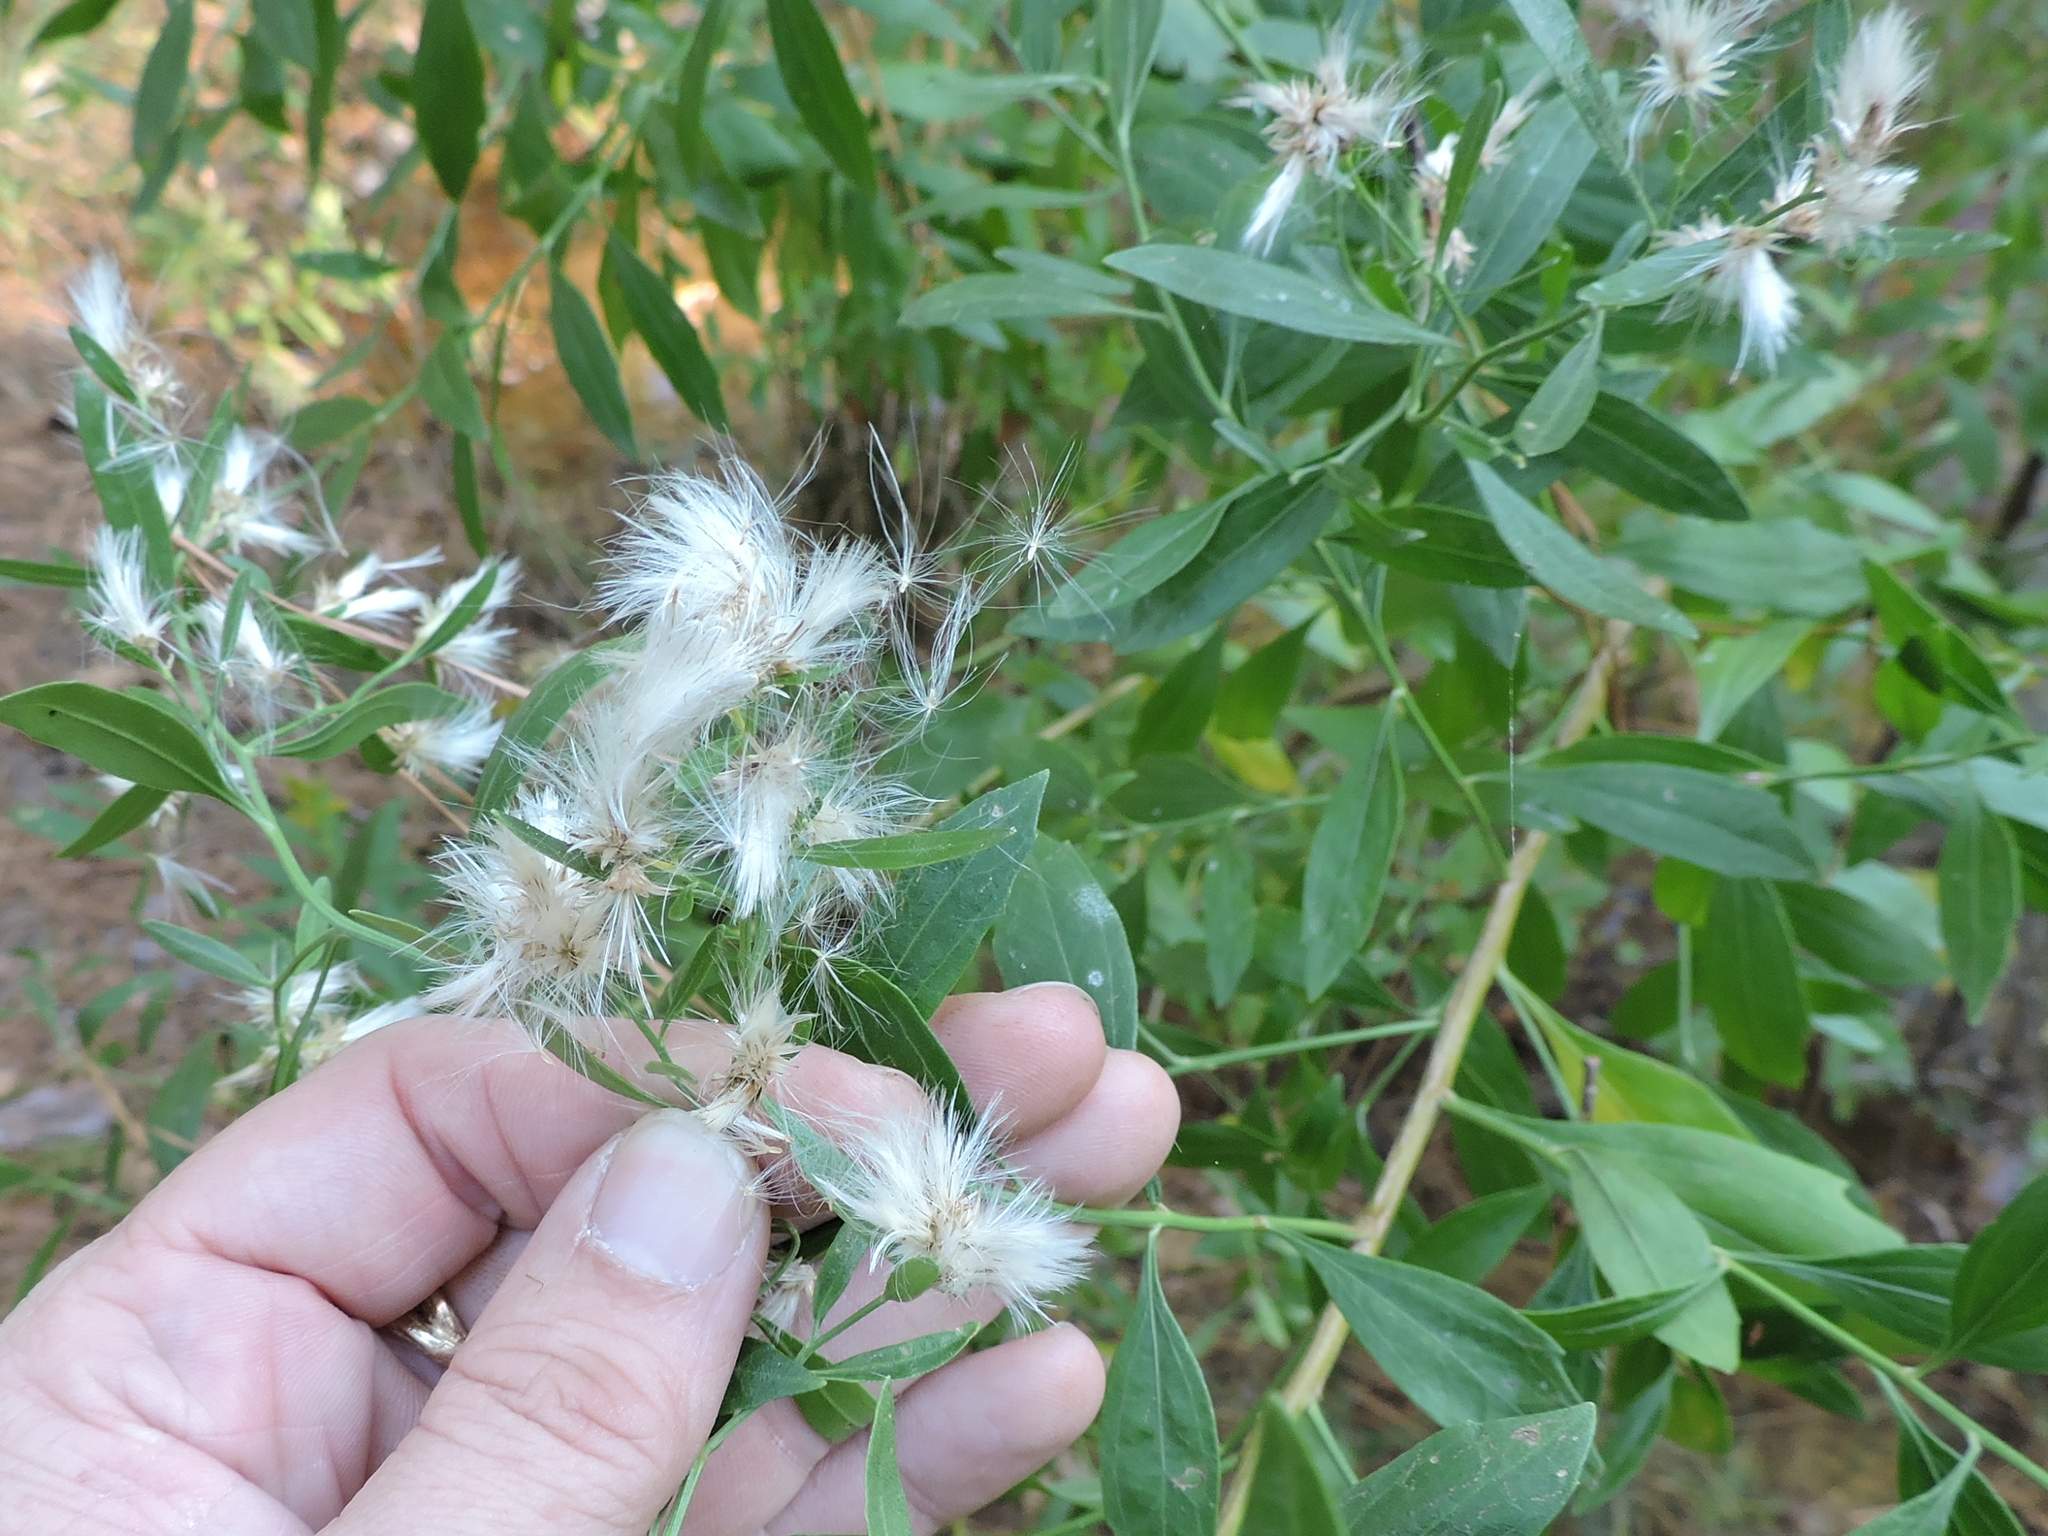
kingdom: Plantae
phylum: Tracheophyta
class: Magnoliopsida
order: Asterales
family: Asteraceae
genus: Baccharis
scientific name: Baccharis halimifolia
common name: Eastern baccharis
